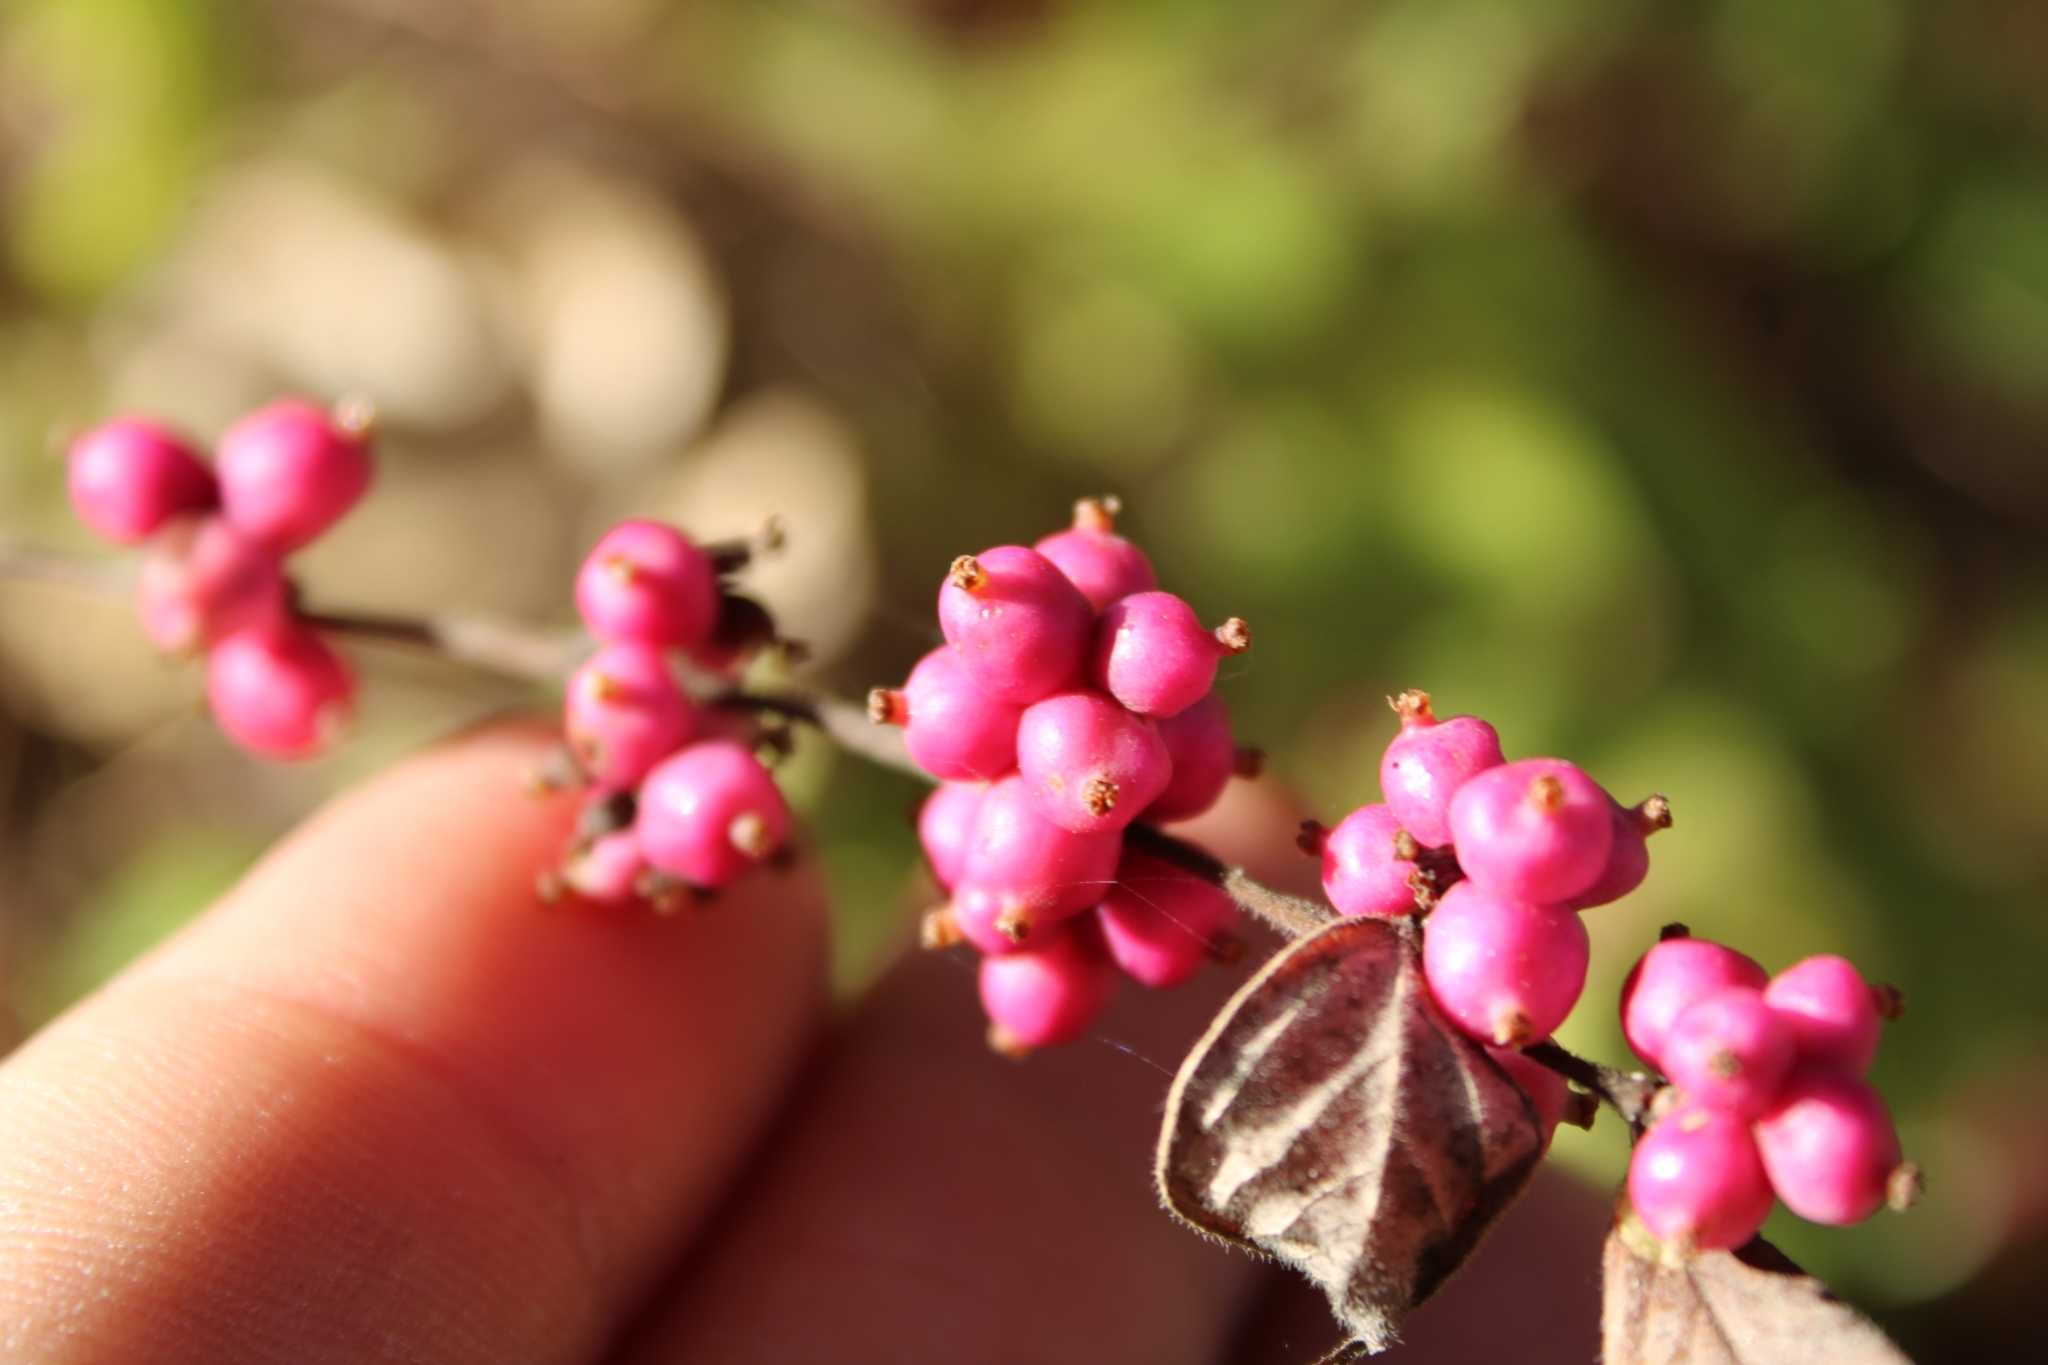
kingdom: Plantae
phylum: Tracheophyta
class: Magnoliopsida
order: Dipsacales
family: Caprifoliaceae
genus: Symphoricarpos
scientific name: Symphoricarpos orbiculatus
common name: Coralberry
